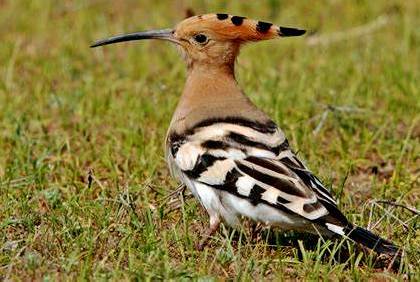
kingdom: Animalia
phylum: Chordata
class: Aves
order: Bucerotiformes
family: Upupidae
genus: Upupa
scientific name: Upupa epops
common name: Eurasian hoopoe
